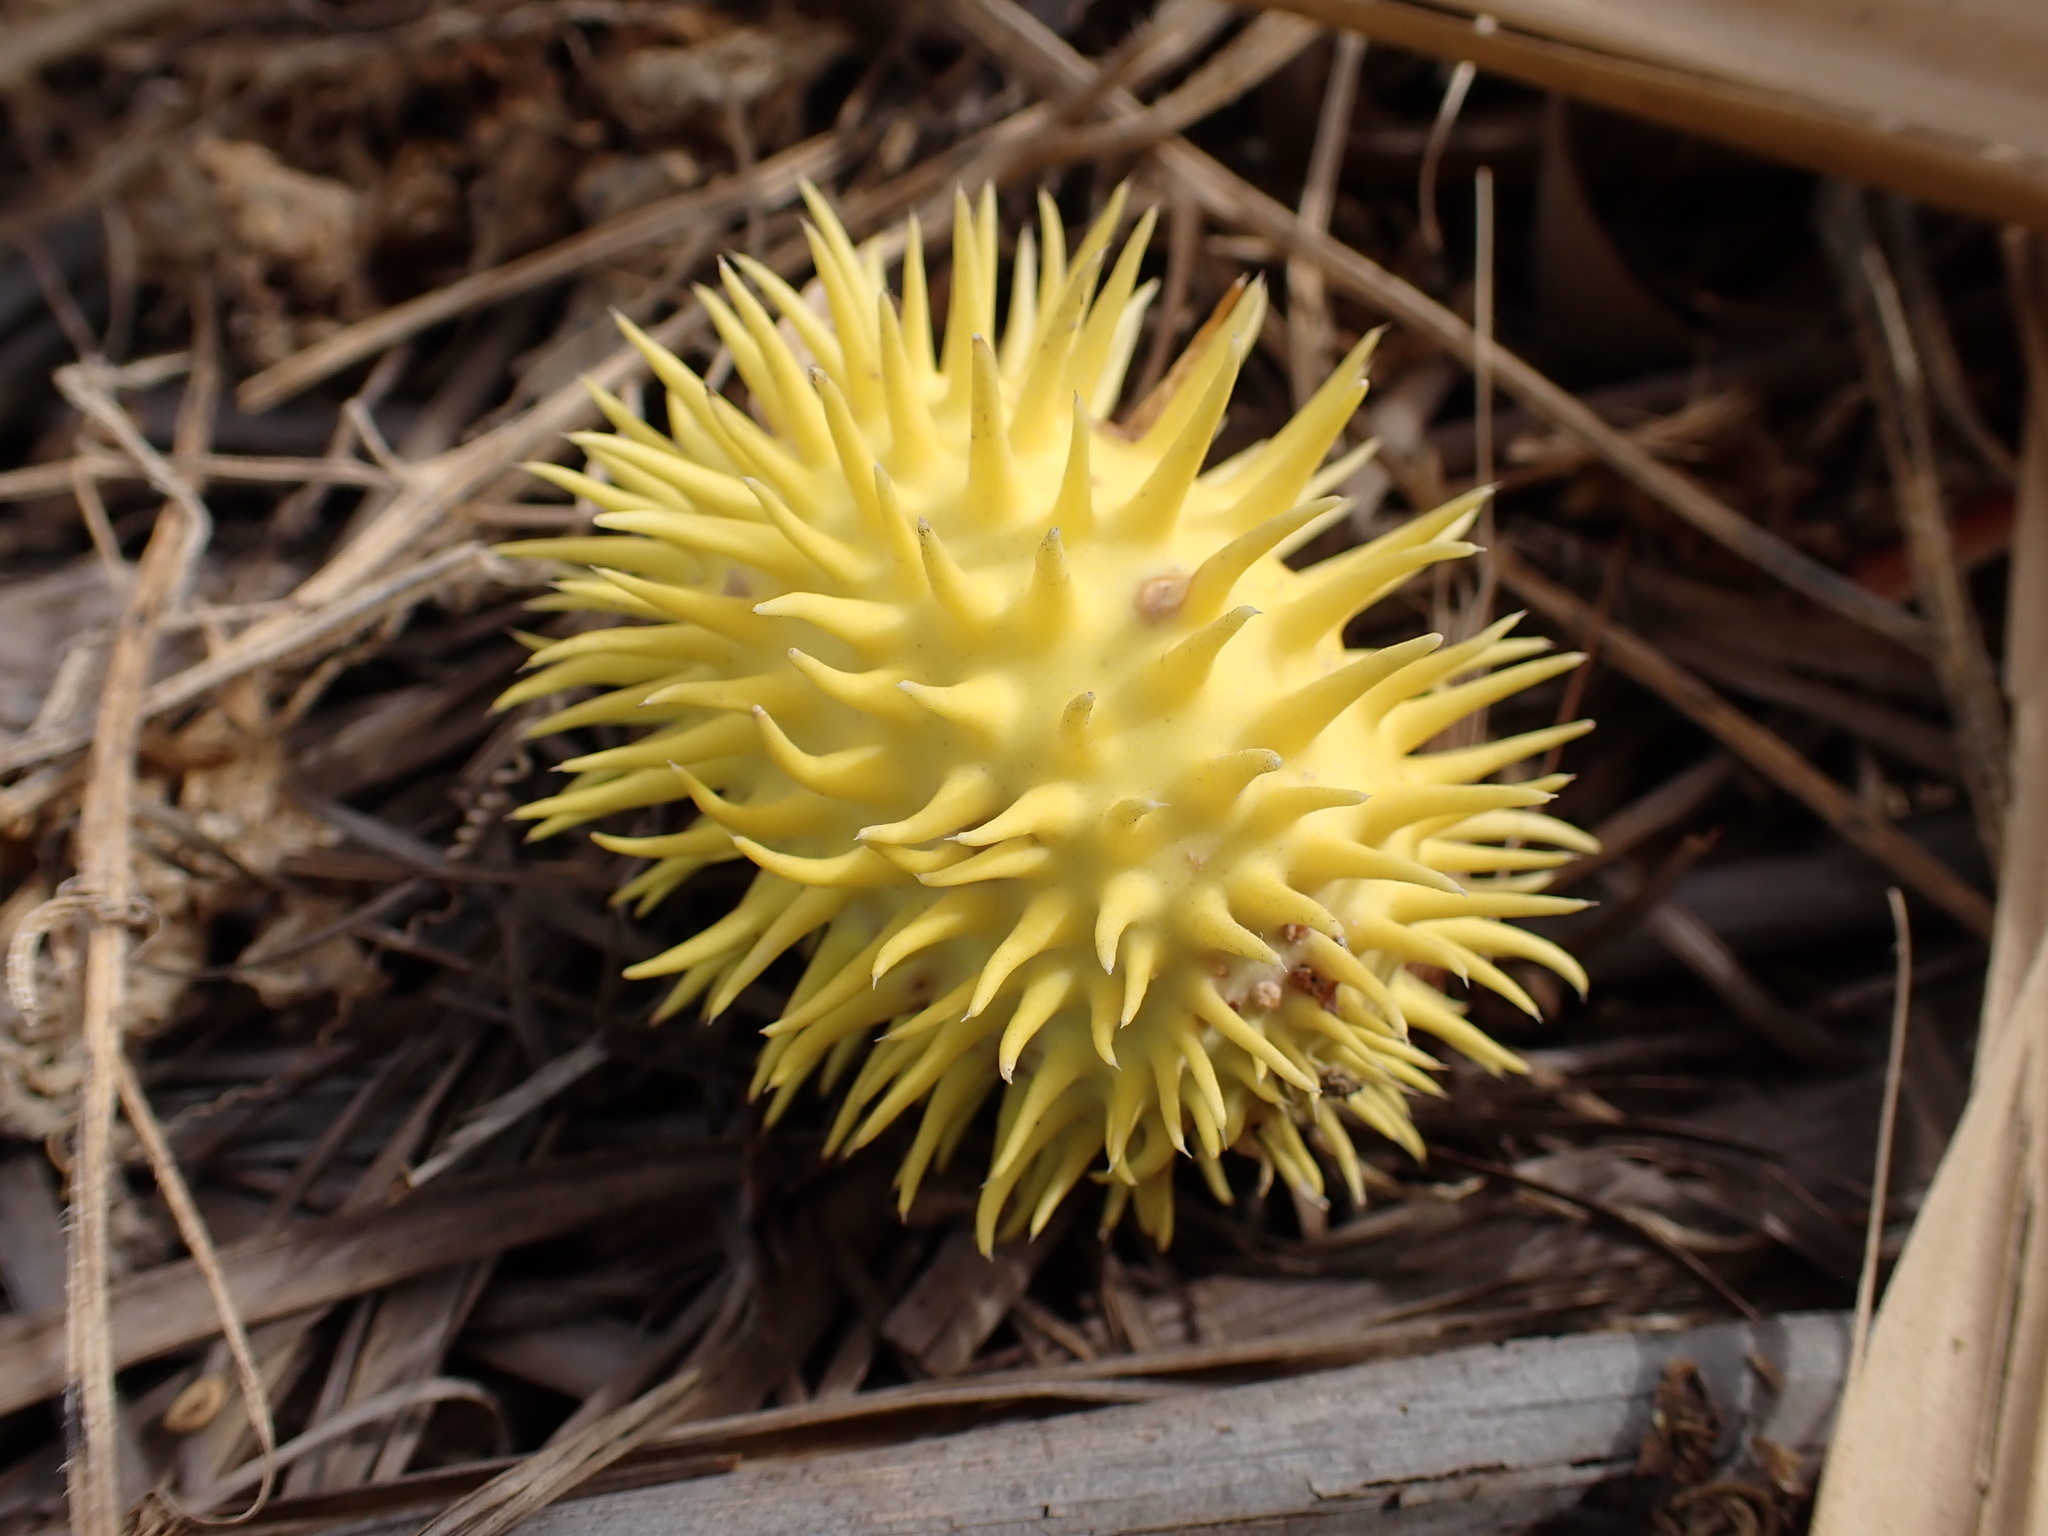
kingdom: Plantae
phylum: Tracheophyta
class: Magnoliopsida
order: Cucurbitales
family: Cucurbitaceae
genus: Cucumis
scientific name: Cucumis anguria
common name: West indian gherkin
